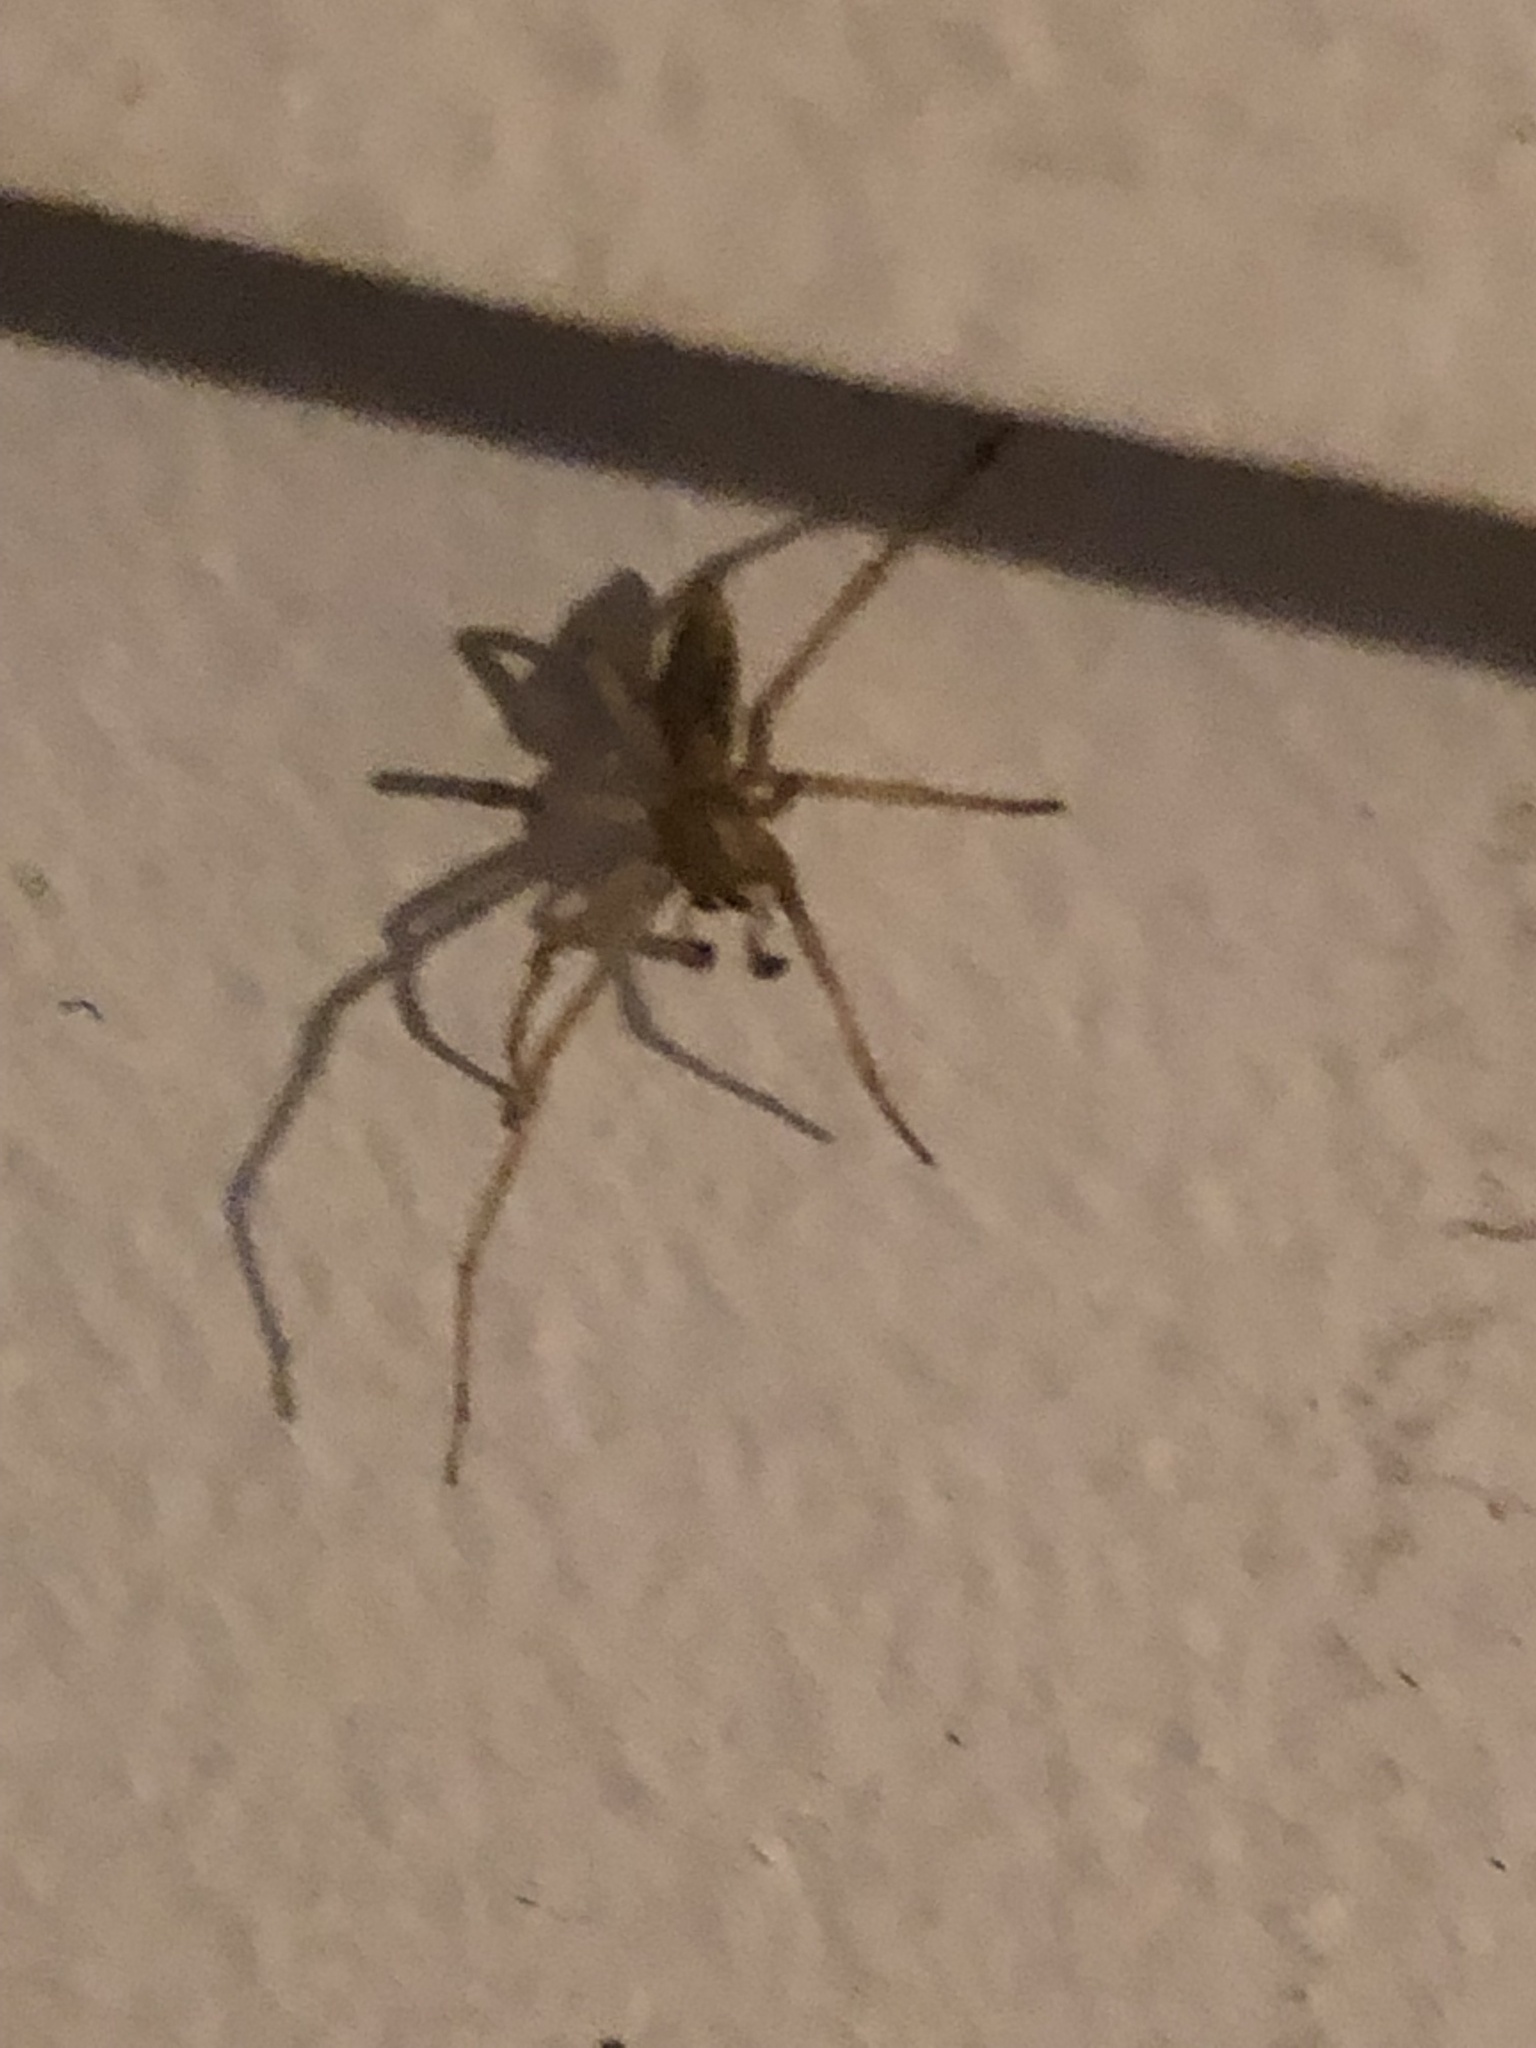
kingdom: Animalia
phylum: Arthropoda
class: Arachnida
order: Araneae
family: Cheiracanthiidae
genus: Cheiracanthium
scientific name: Cheiracanthium mildei
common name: Northern yellow sac spider
